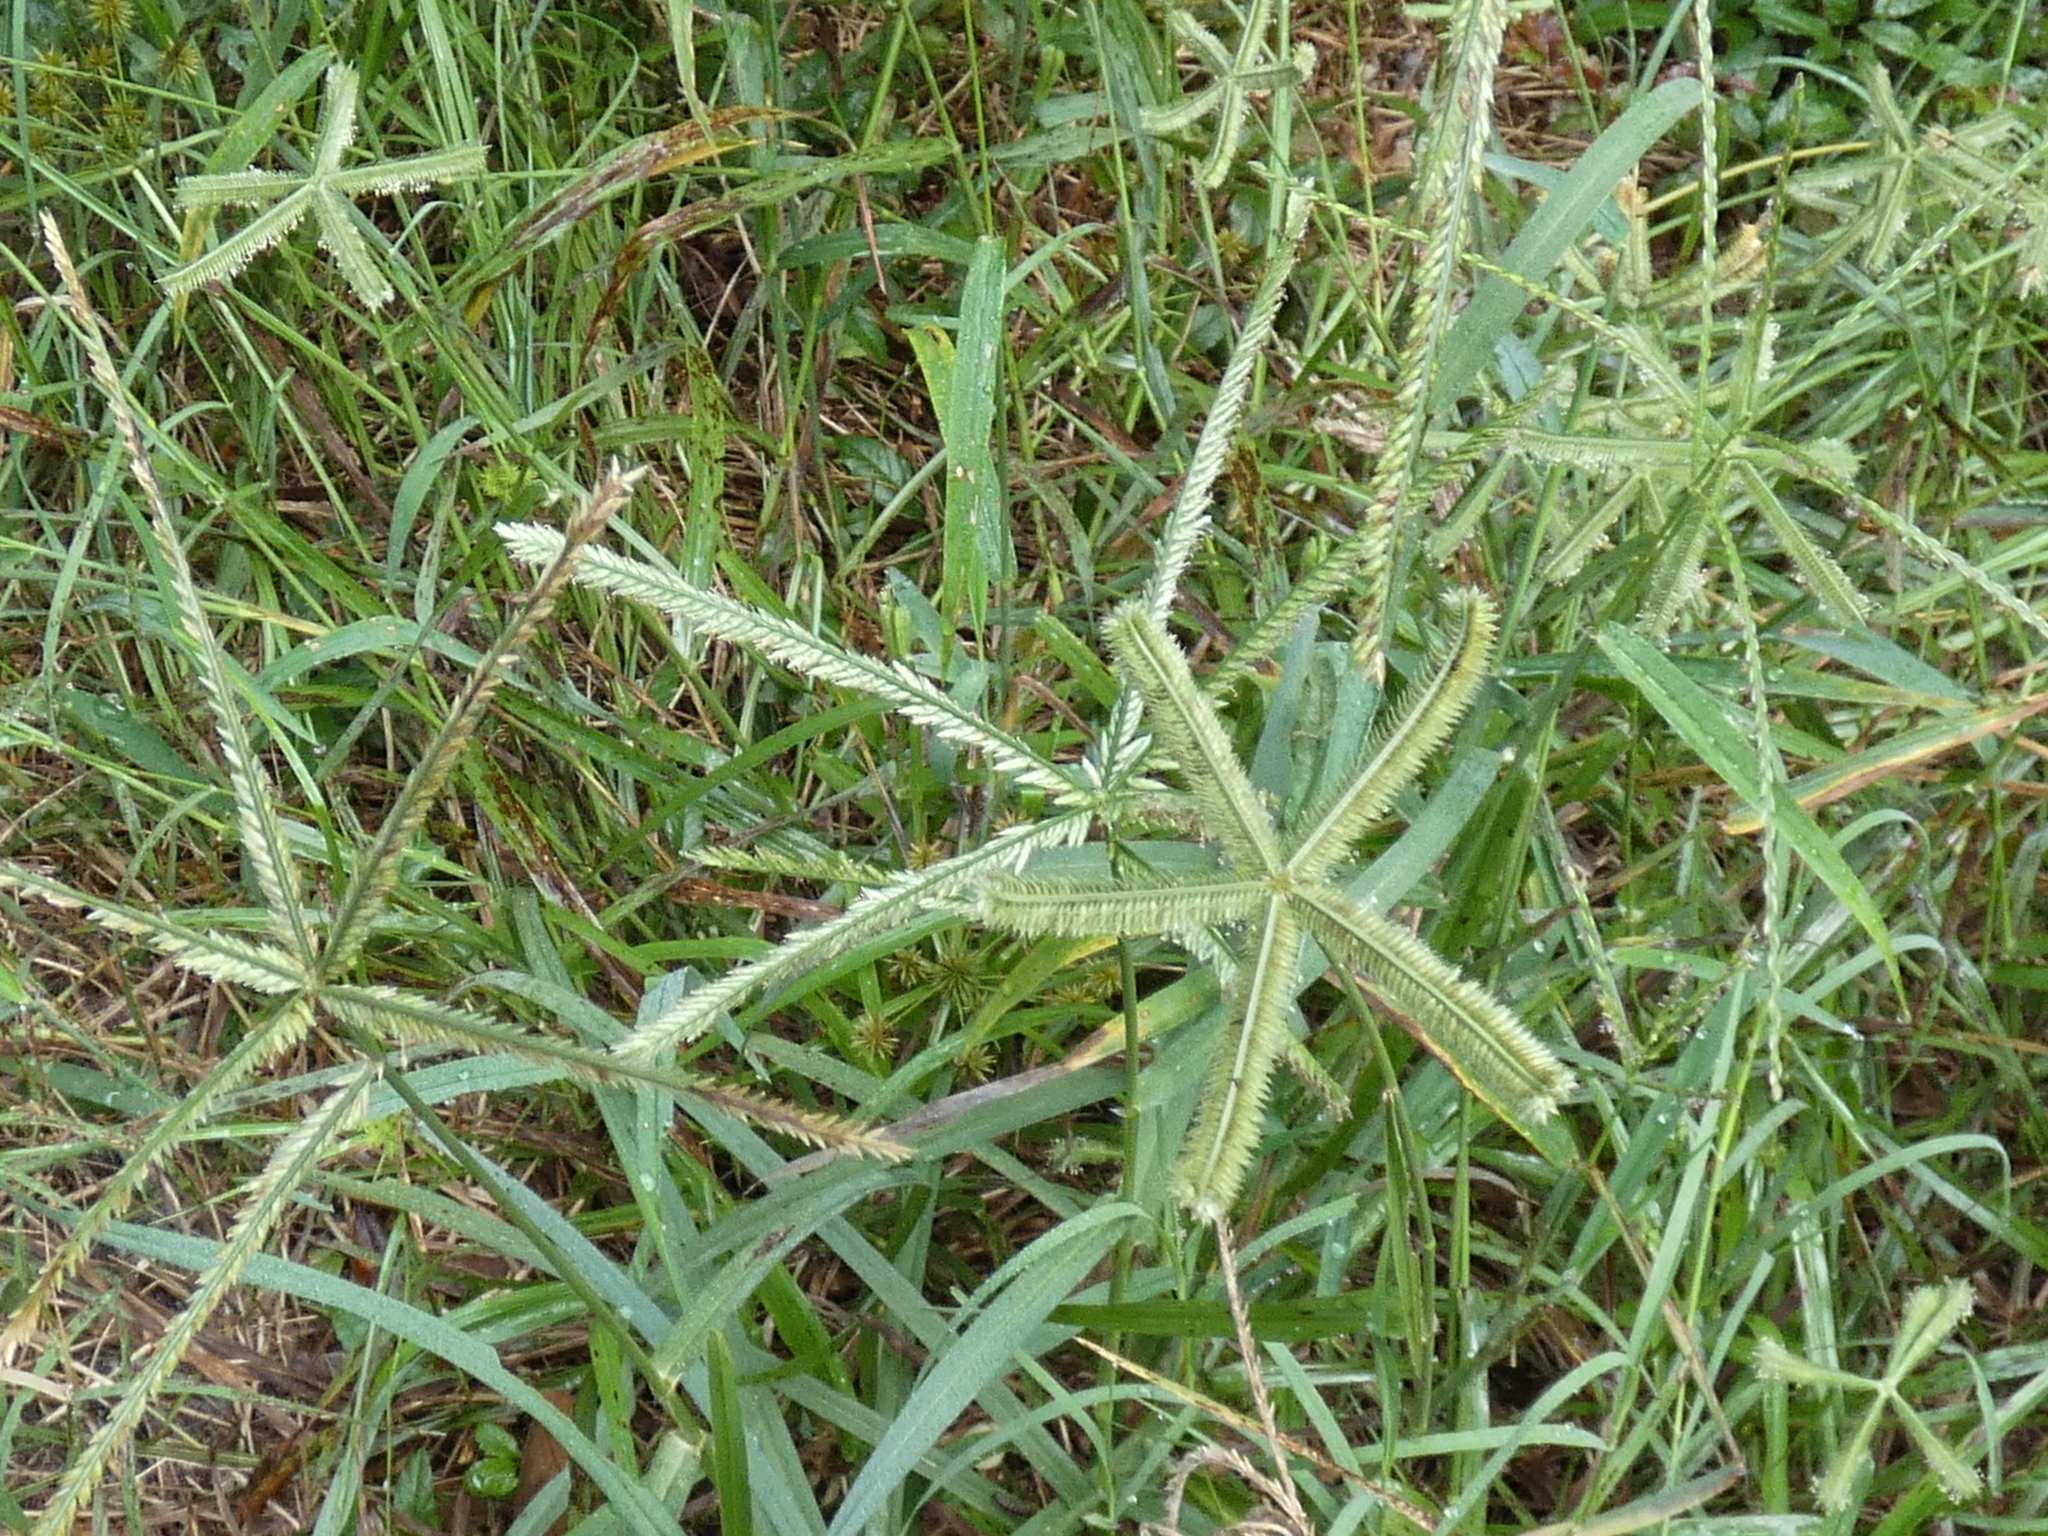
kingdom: Plantae
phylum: Tracheophyta
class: Liliopsida
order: Poales
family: Poaceae
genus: Dactyloctenium
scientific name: Dactyloctenium aegyptium
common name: Egyptian grass
